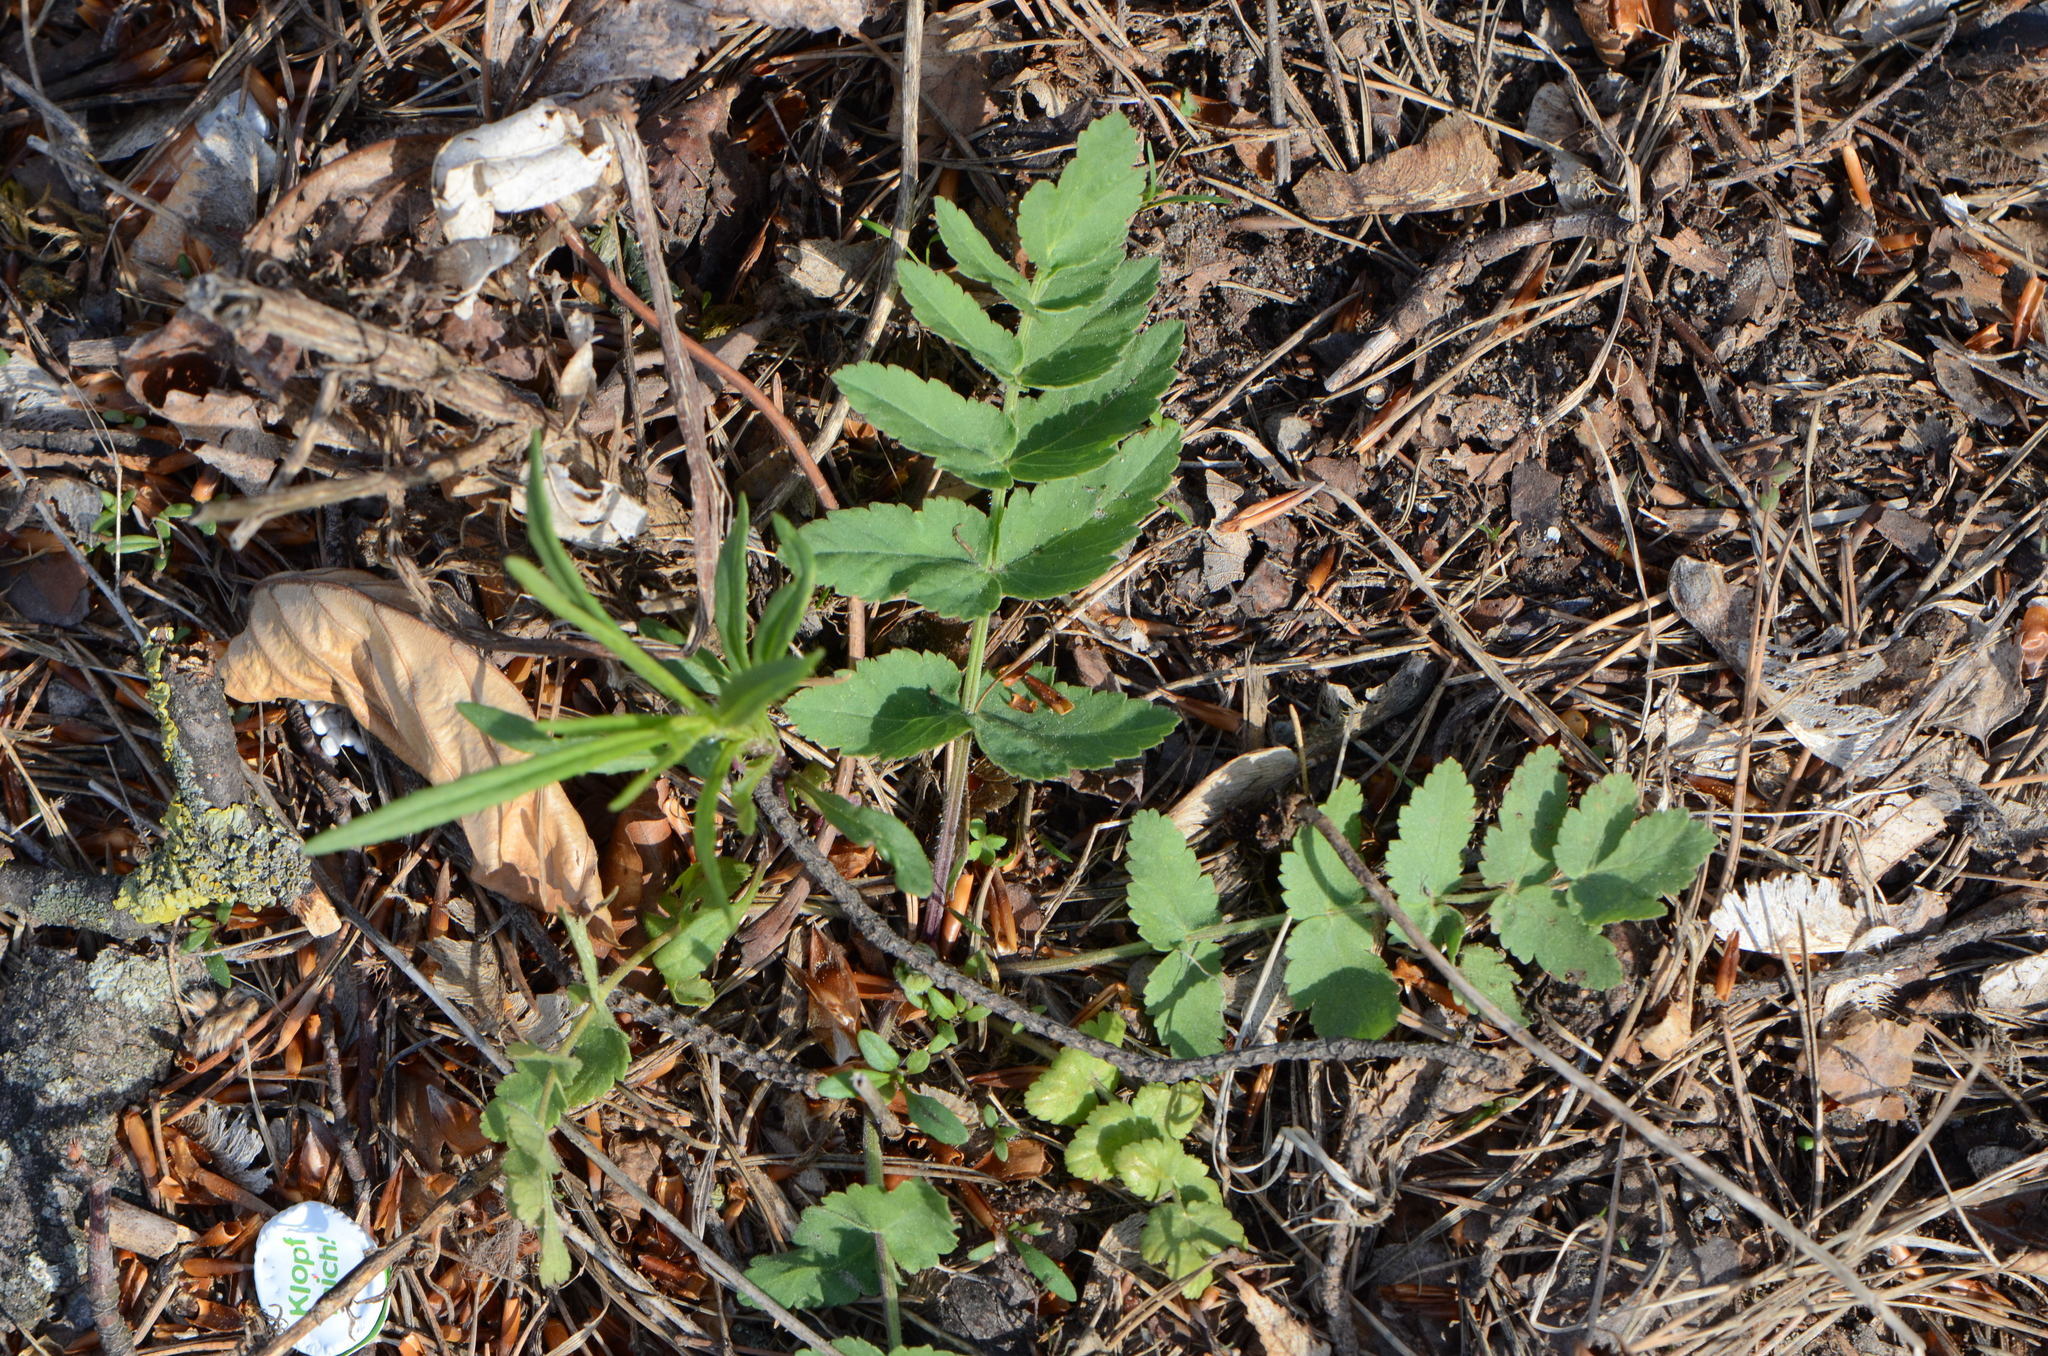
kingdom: Plantae
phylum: Tracheophyta
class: Magnoliopsida
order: Apiales
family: Apiaceae
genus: Pastinaca
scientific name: Pastinaca sativa
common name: Wild parsnip
